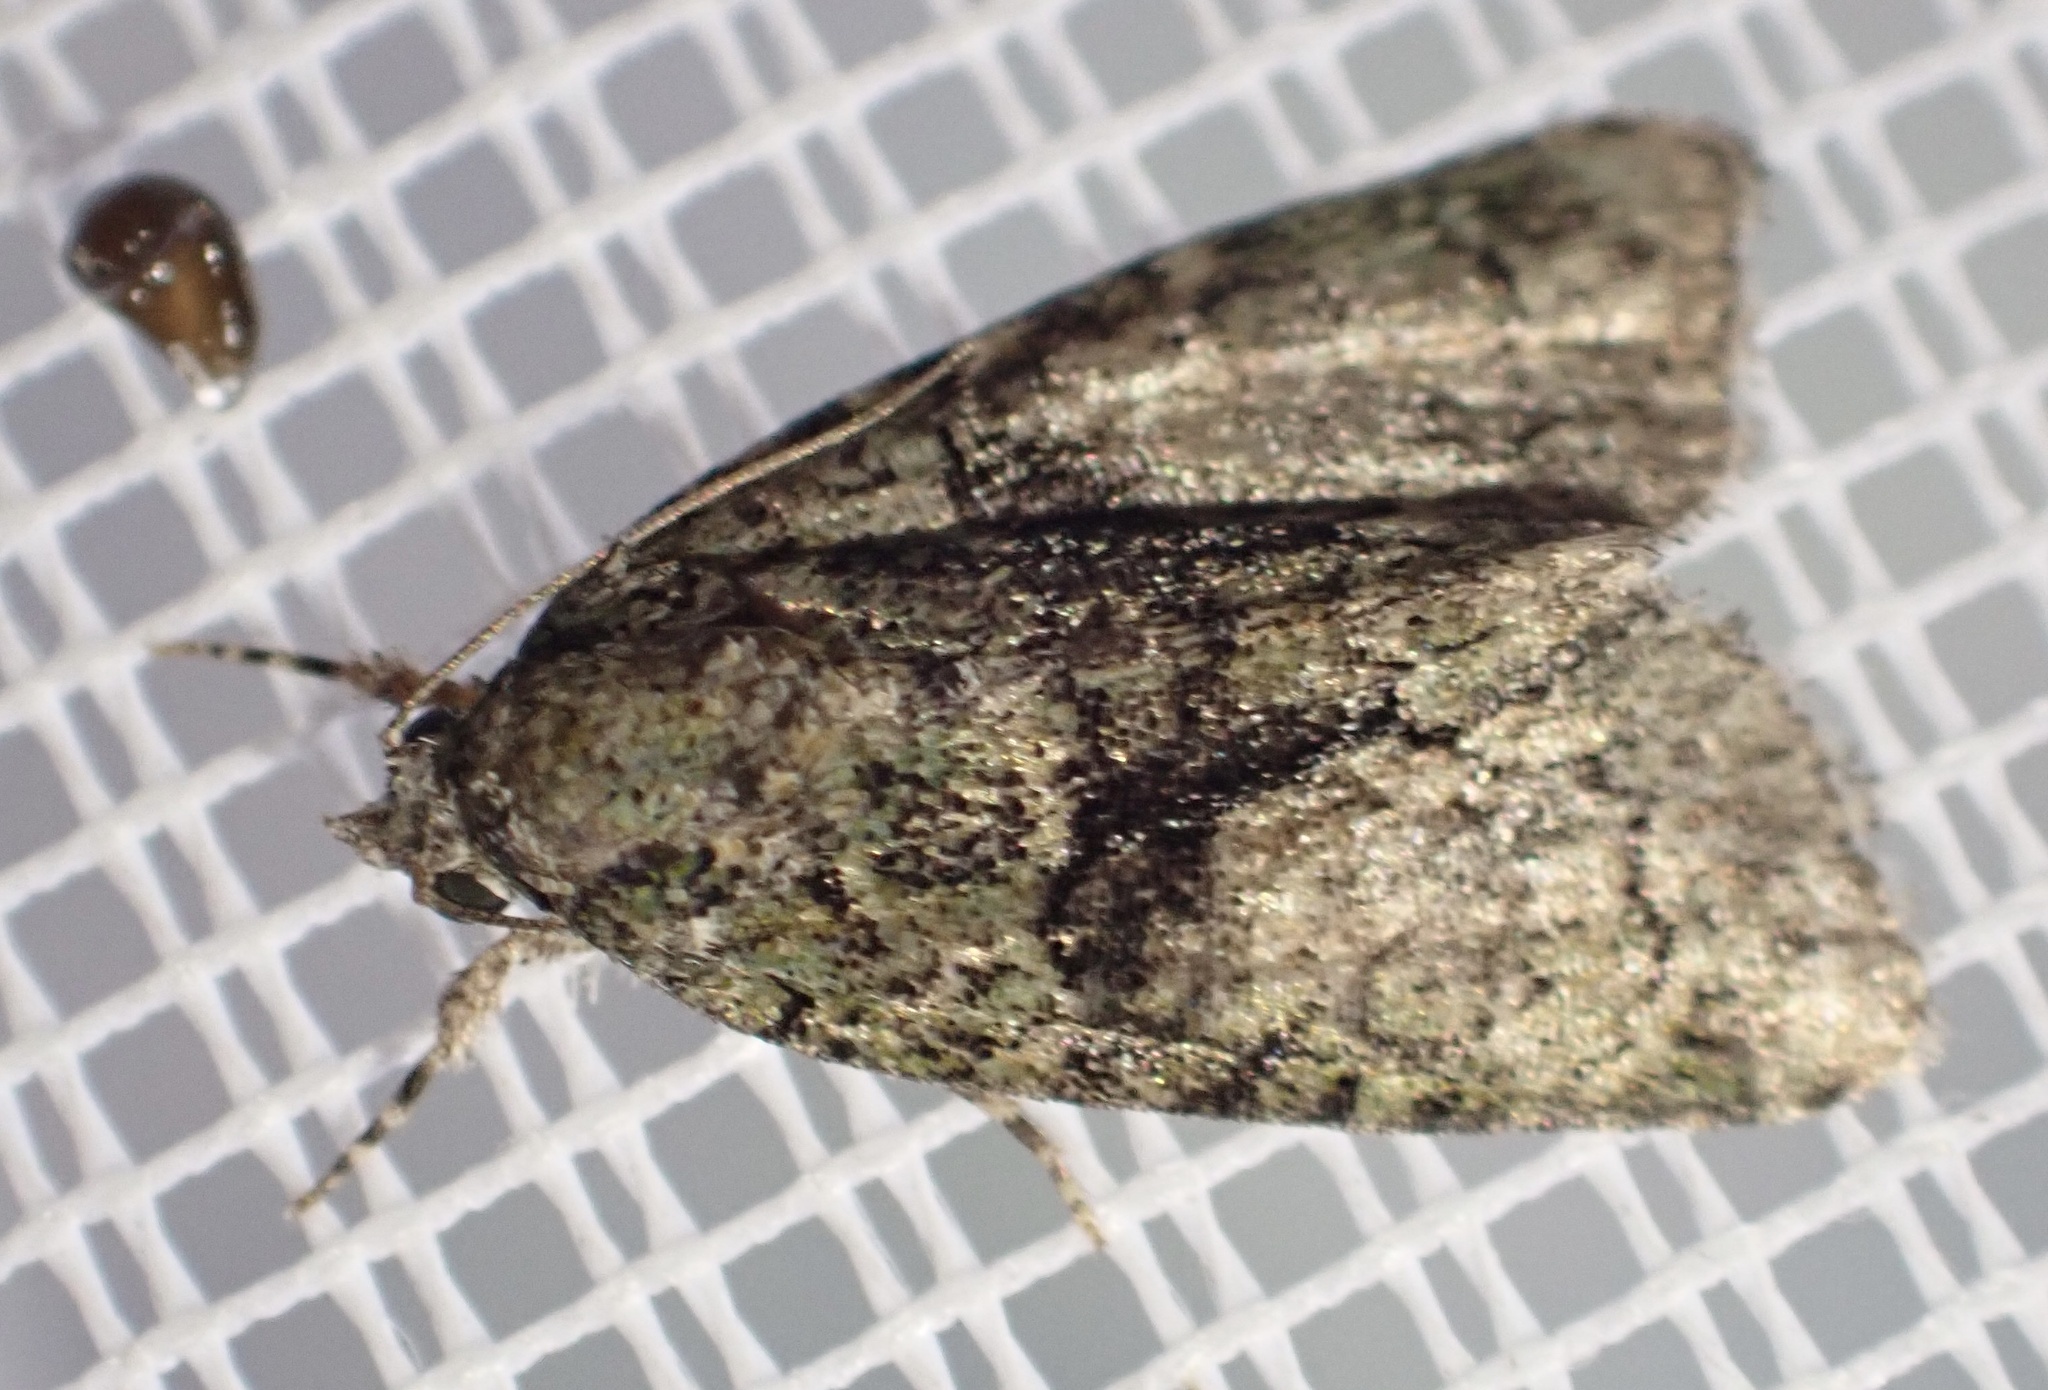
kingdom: Animalia
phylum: Arthropoda
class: Insecta
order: Lepidoptera
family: Noctuidae
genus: Cryphia
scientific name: Cryphia algae
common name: Tree-lichen beauty
